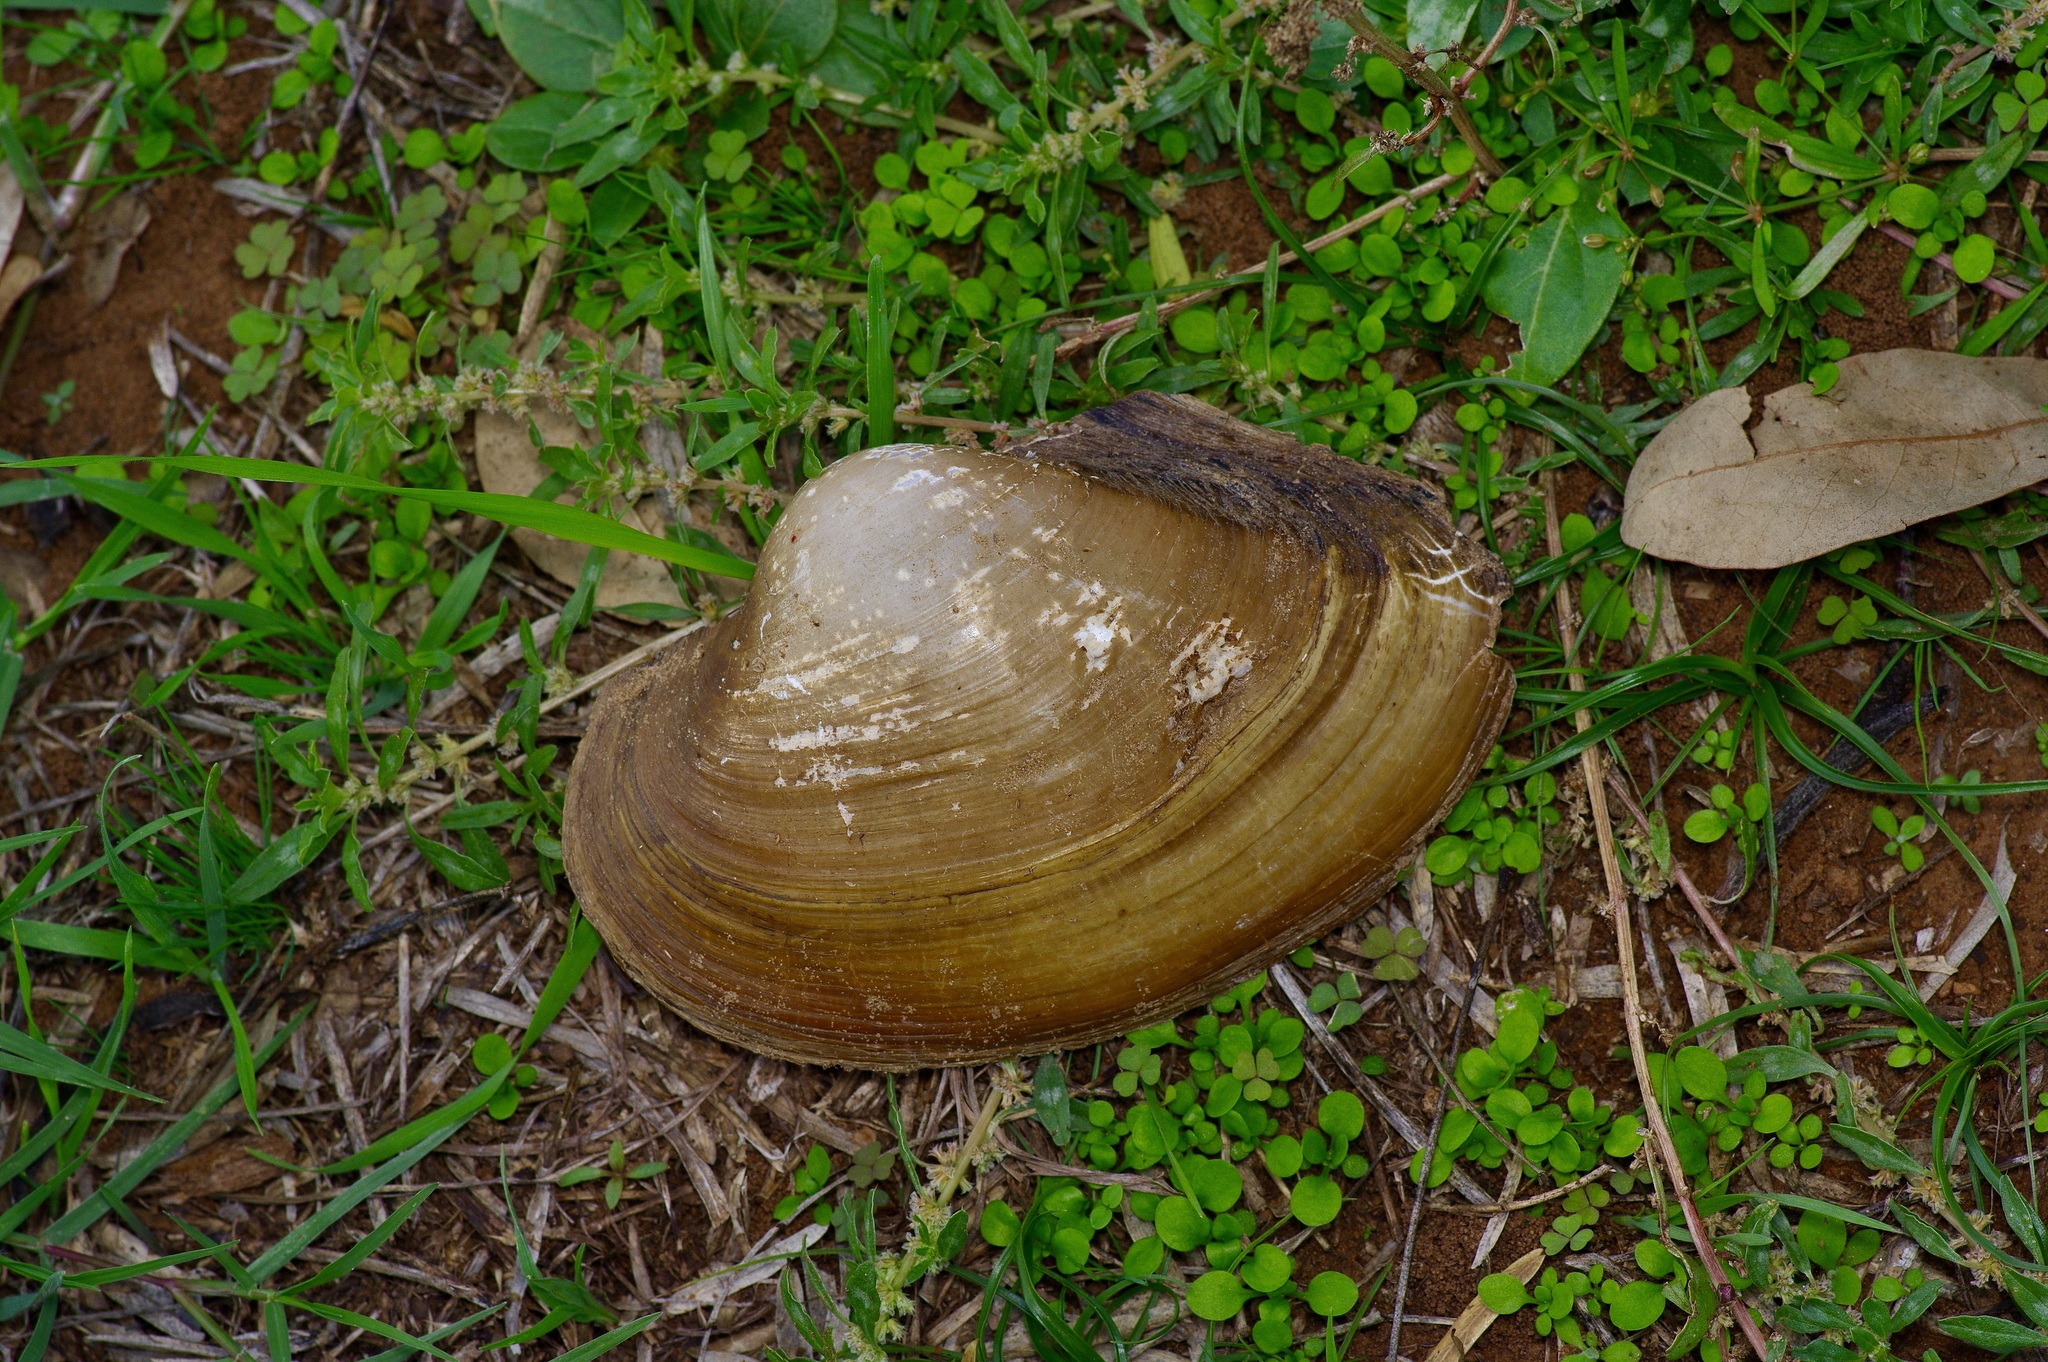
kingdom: Animalia
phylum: Mollusca
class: Bivalvia
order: Unionida
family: Unionidae
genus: Pyganodon
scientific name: Pyganodon grandis
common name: Giant floater
